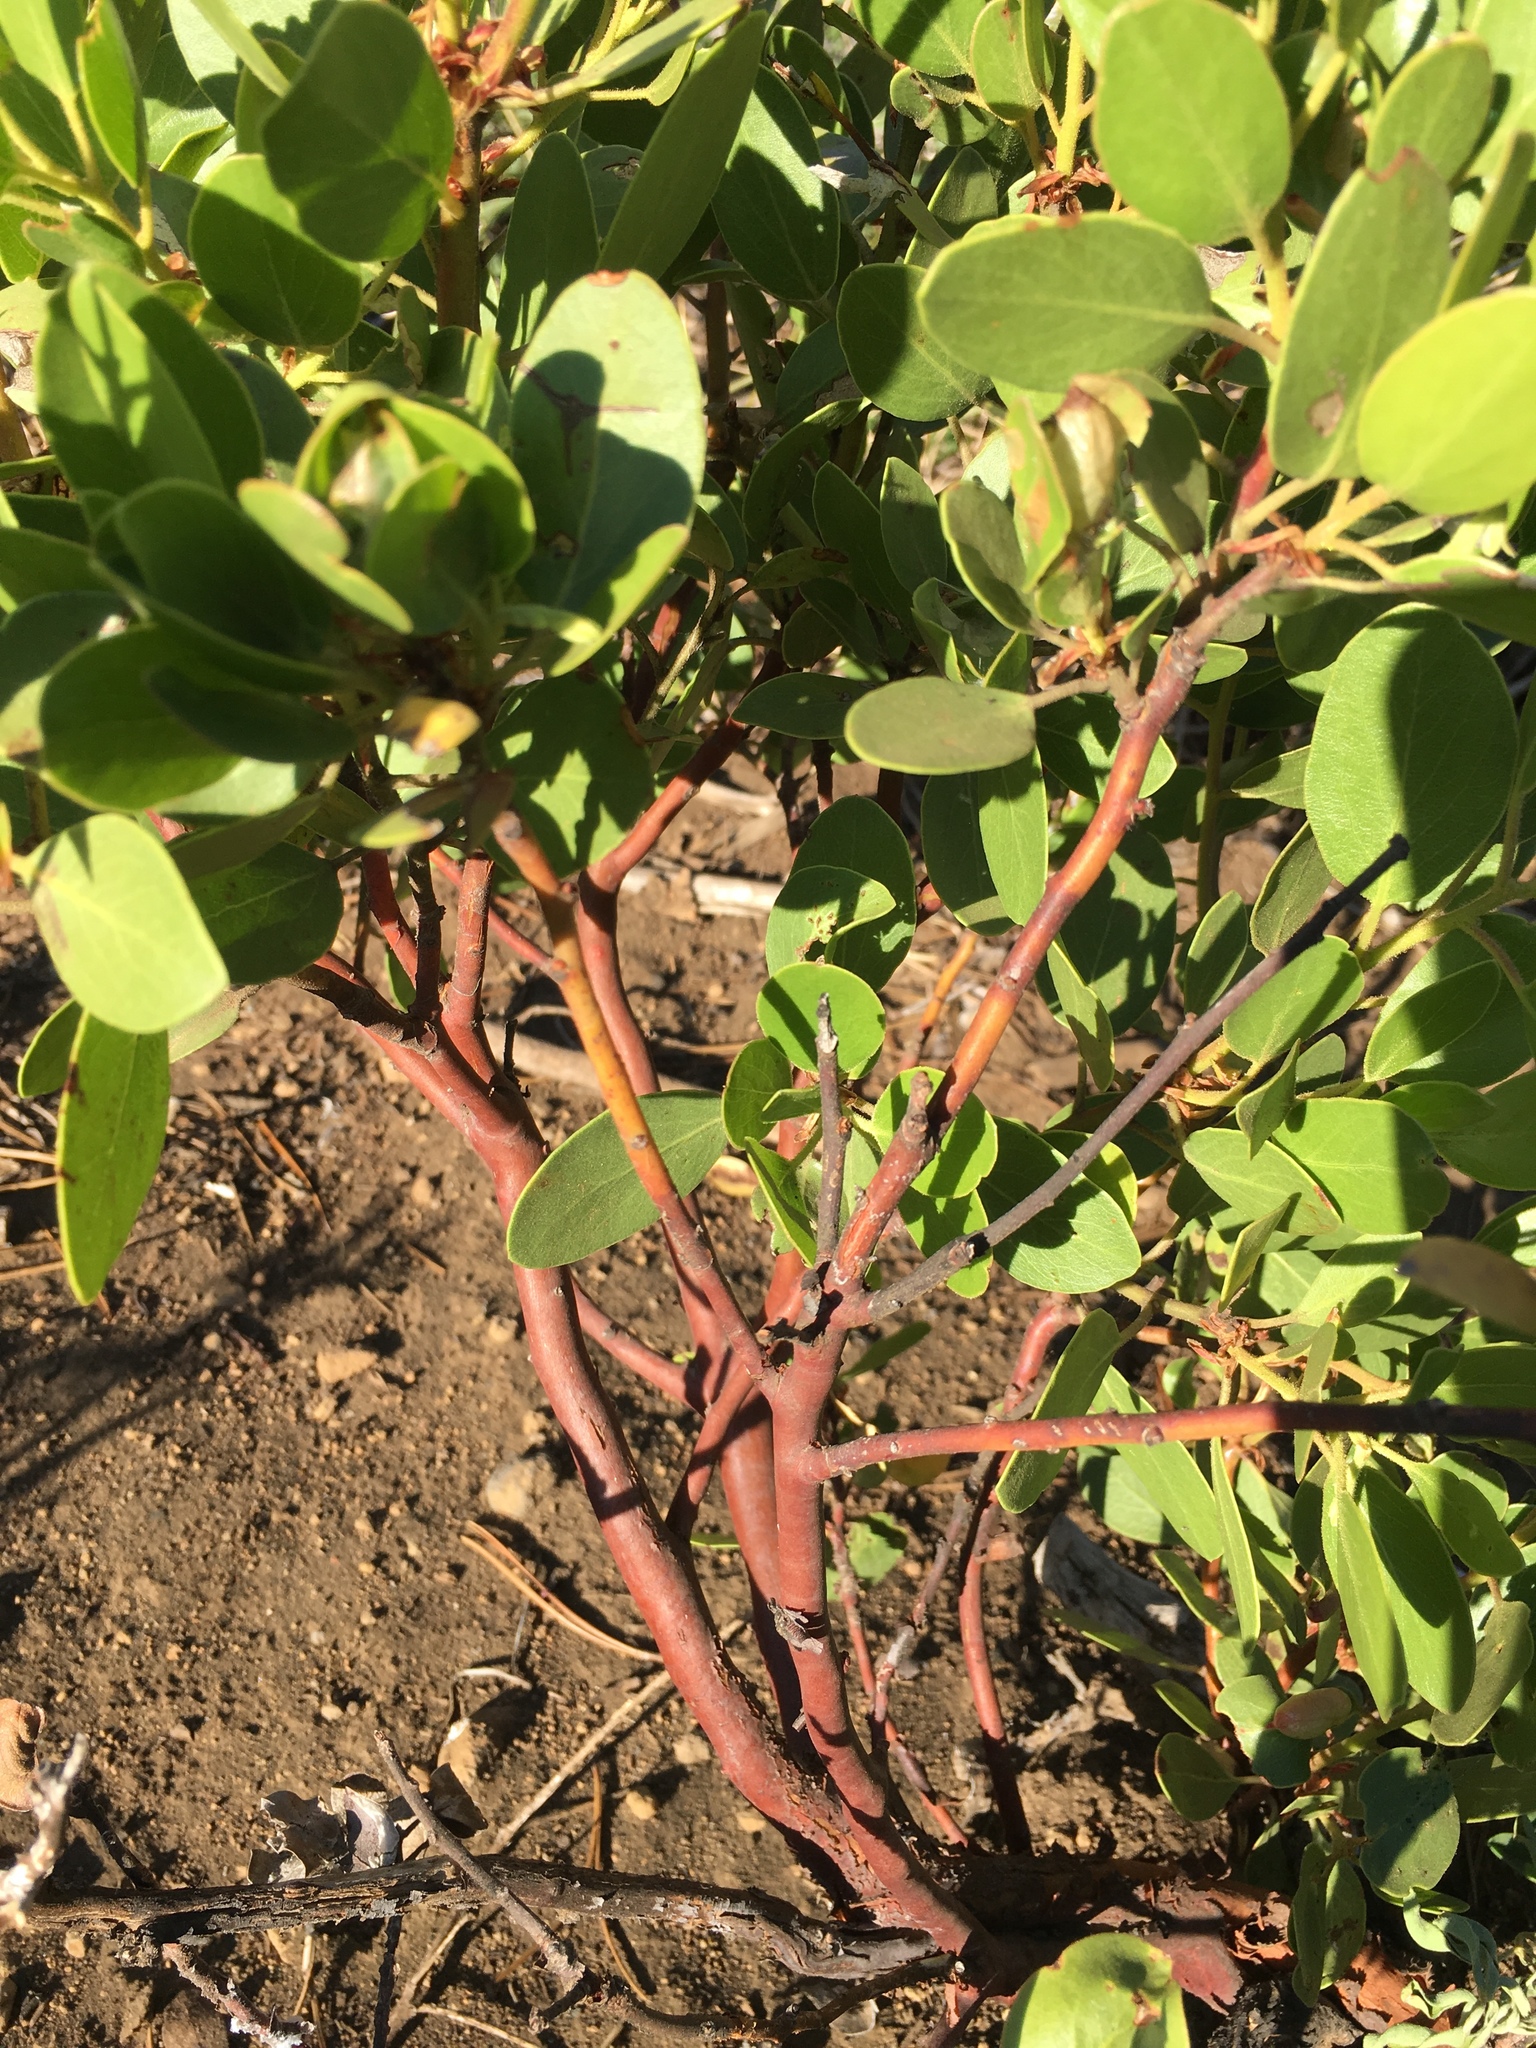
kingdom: Plantae
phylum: Tracheophyta
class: Magnoliopsida
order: Ericales
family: Ericaceae
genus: Arctostaphylos
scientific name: Arctostaphylos patula
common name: Green-leaf manzanita
